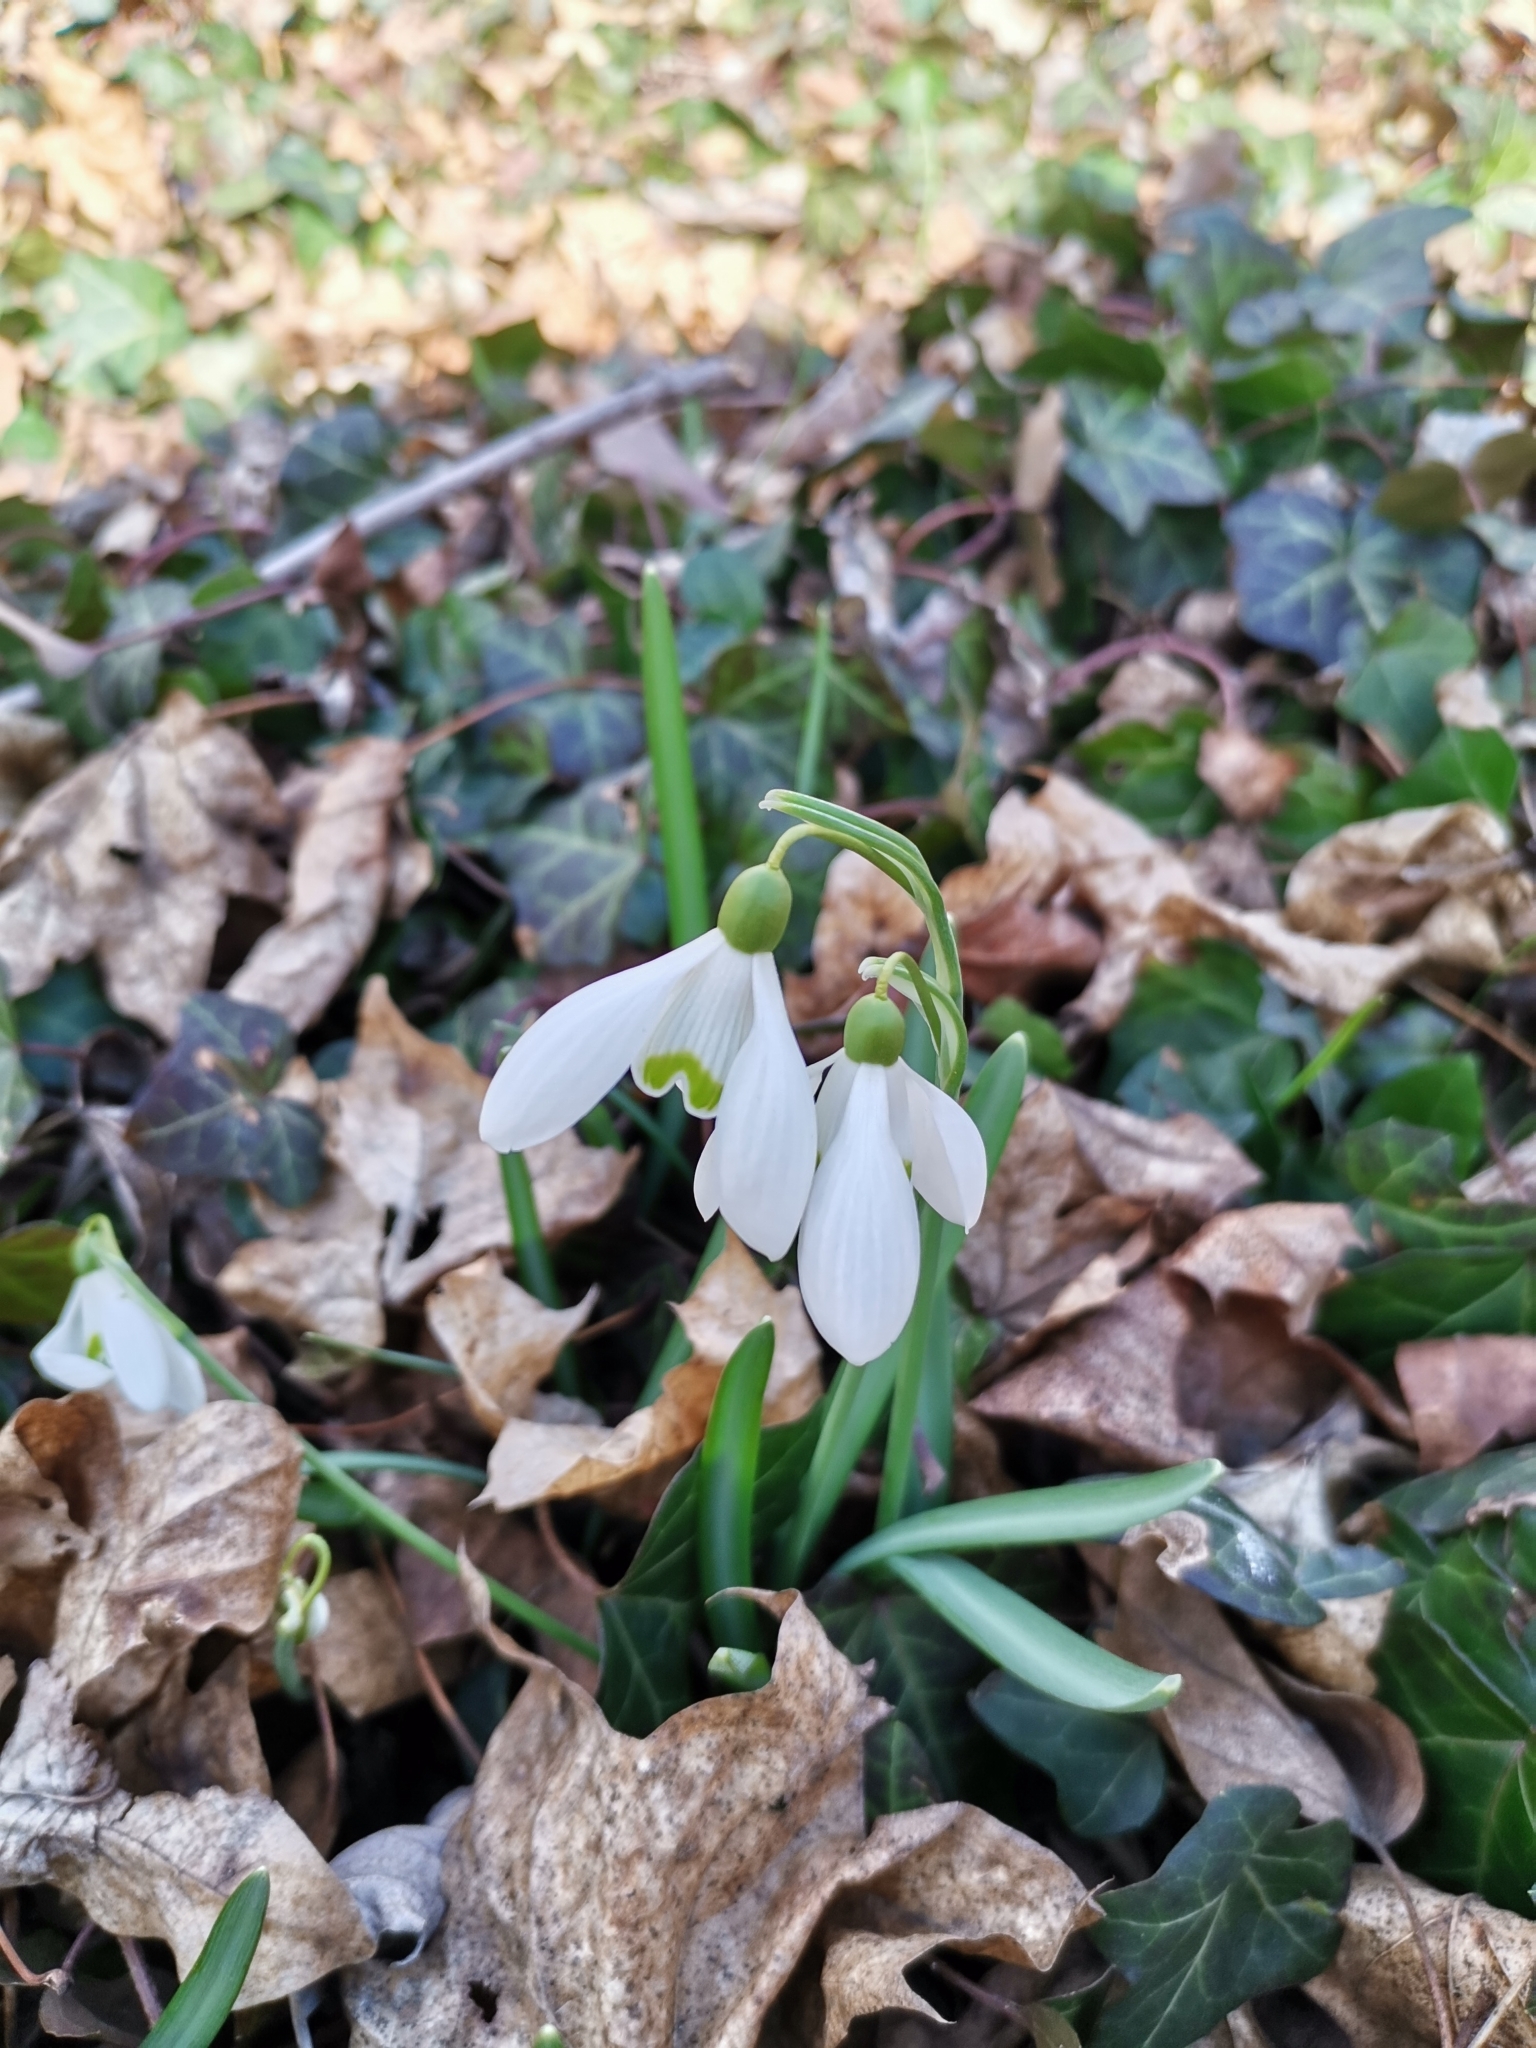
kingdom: Plantae
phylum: Tracheophyta
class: Liliopsida
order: Asparagales
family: Amaryllidaceae
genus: Galanthus
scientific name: Galanthus nivalis
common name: Snowdrop
